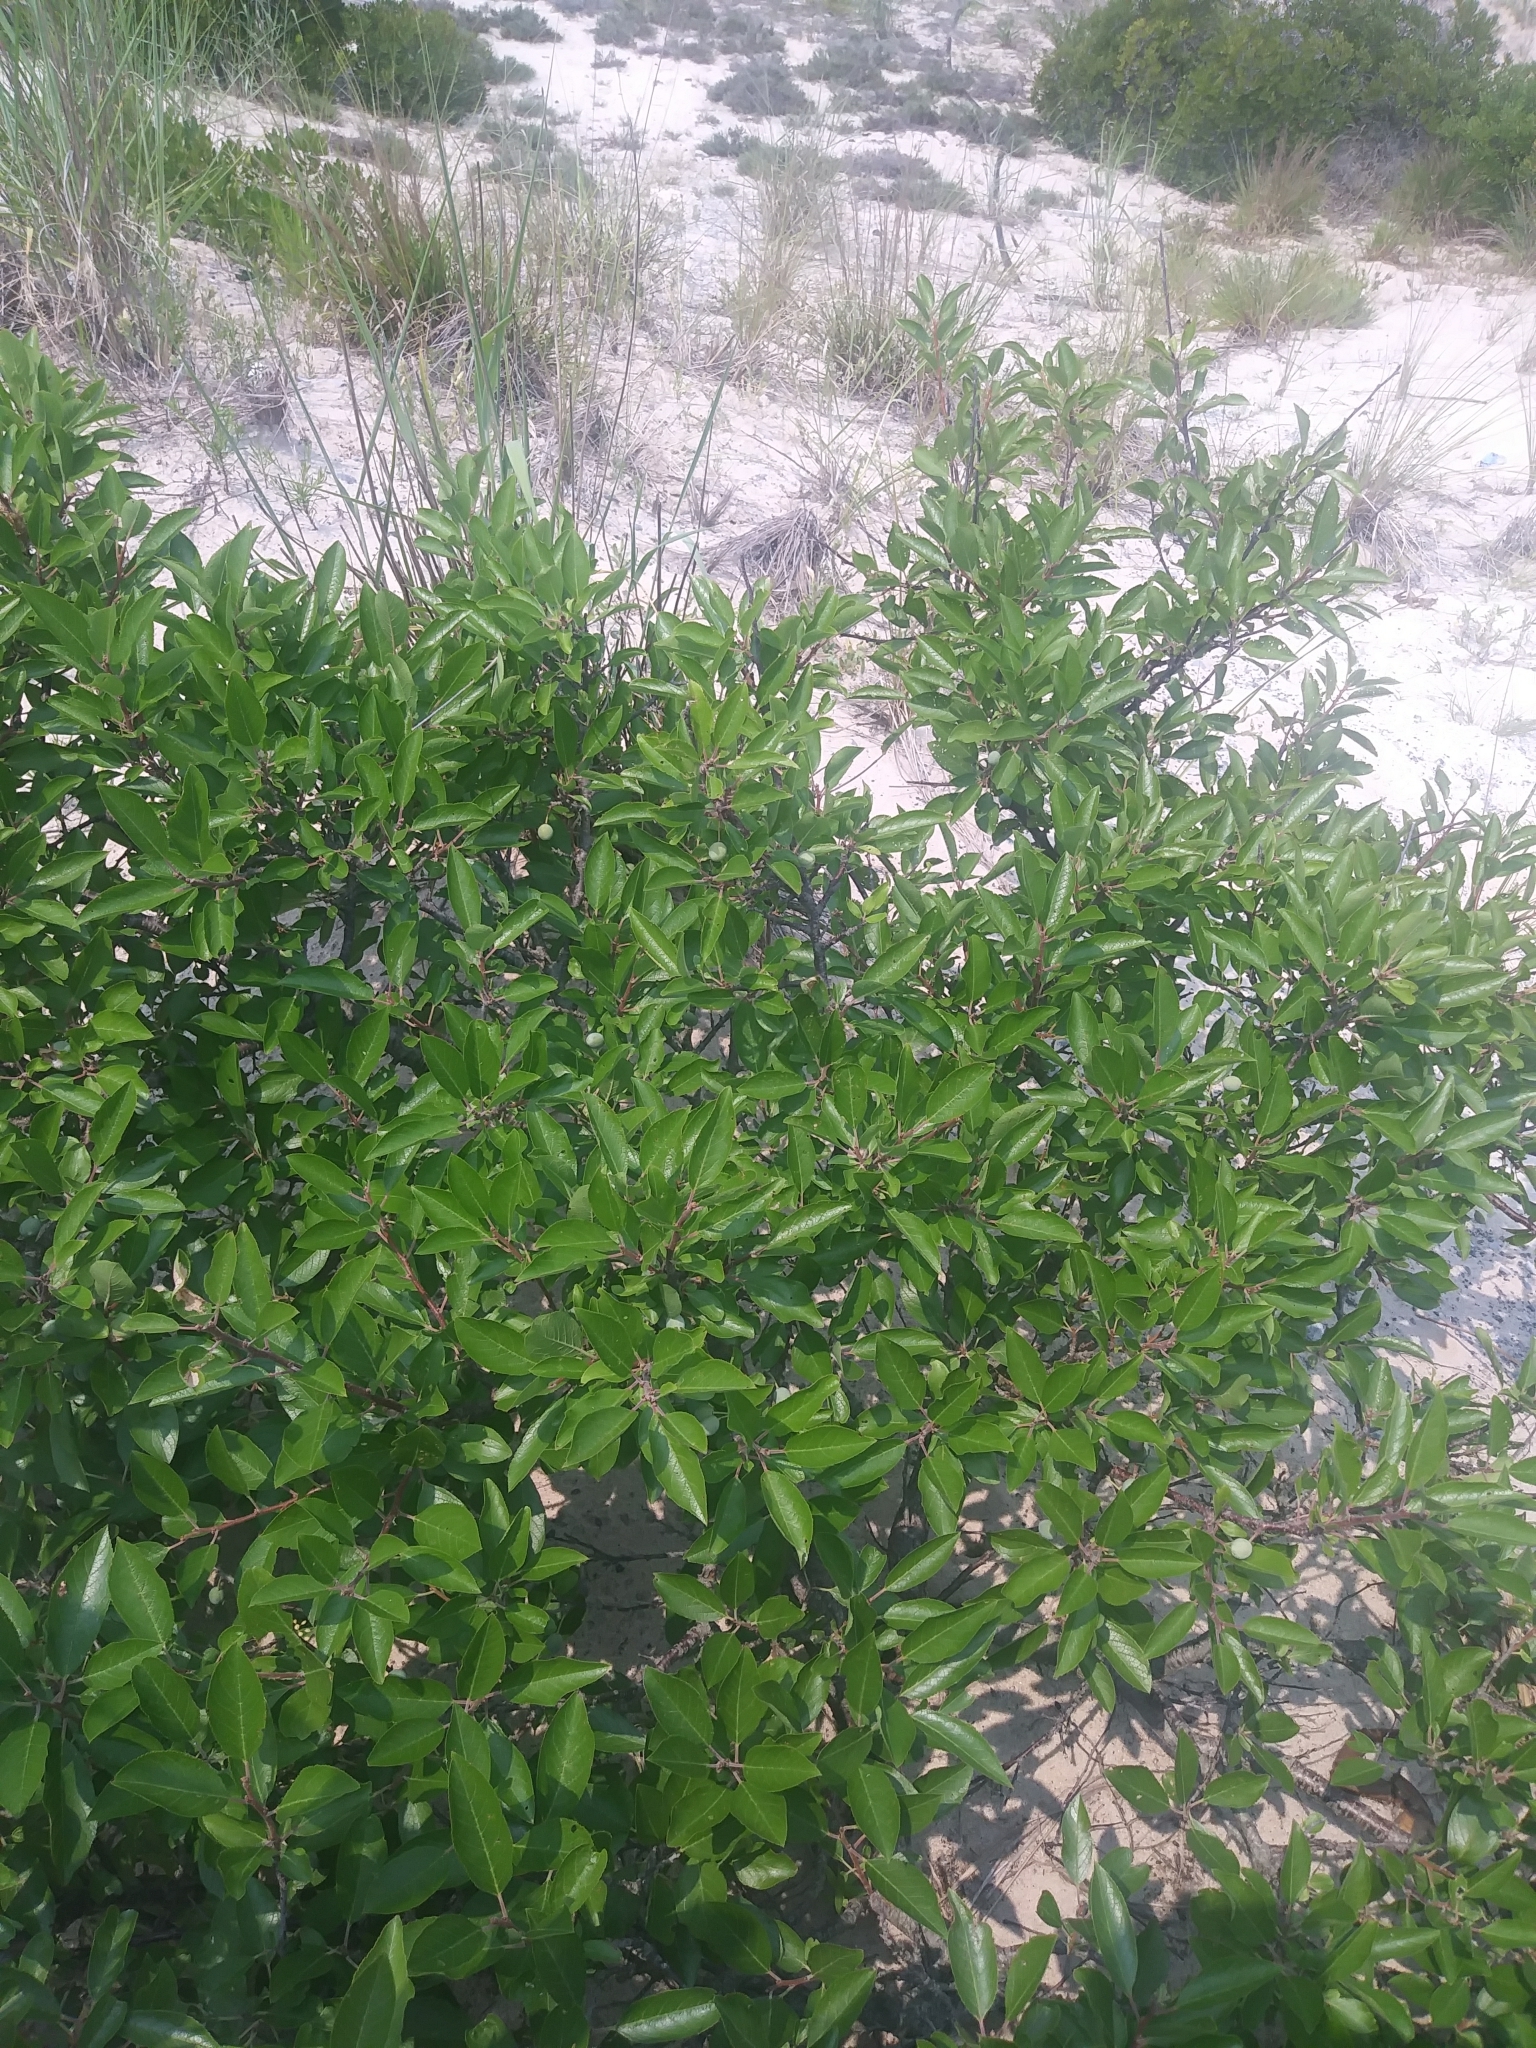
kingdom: Plantae
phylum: Tracheophyta
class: Magnoliopsida
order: Rosales
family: Rosaceae
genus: Prunus
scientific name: Prunus maritima
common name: Beach plum
